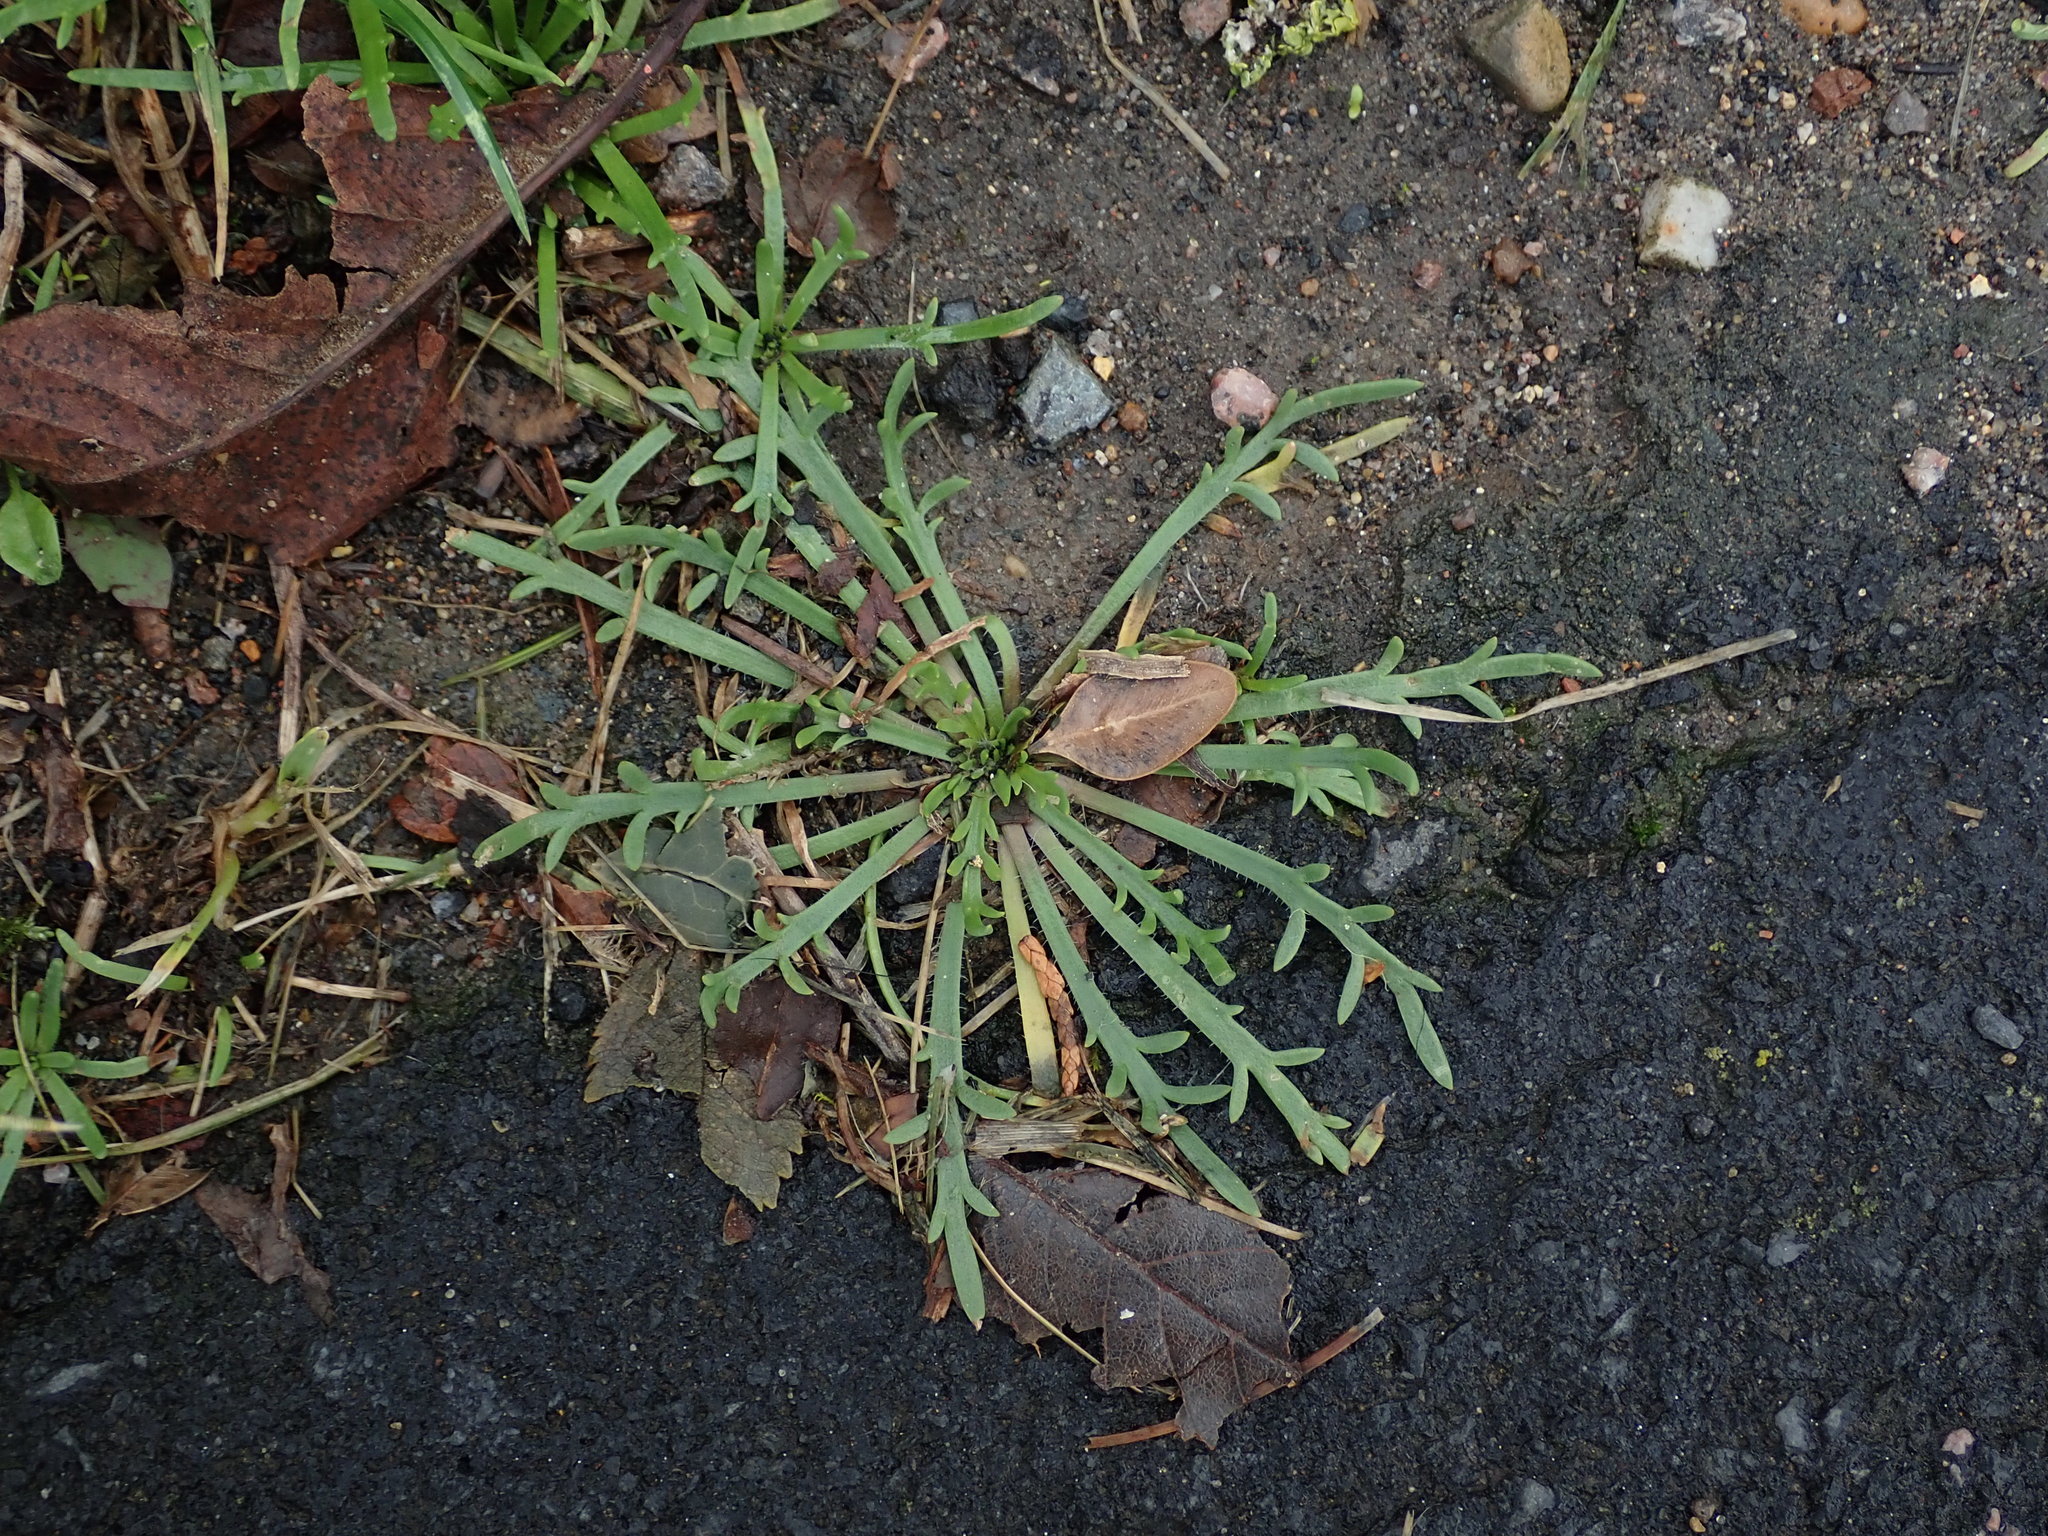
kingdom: Plantae
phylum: Tracheophyta
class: Magnoliopsida
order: Lamiales
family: Plantaginaceae
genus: Plantago
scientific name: Plantago coronopus
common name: Buck's-horn plantain
